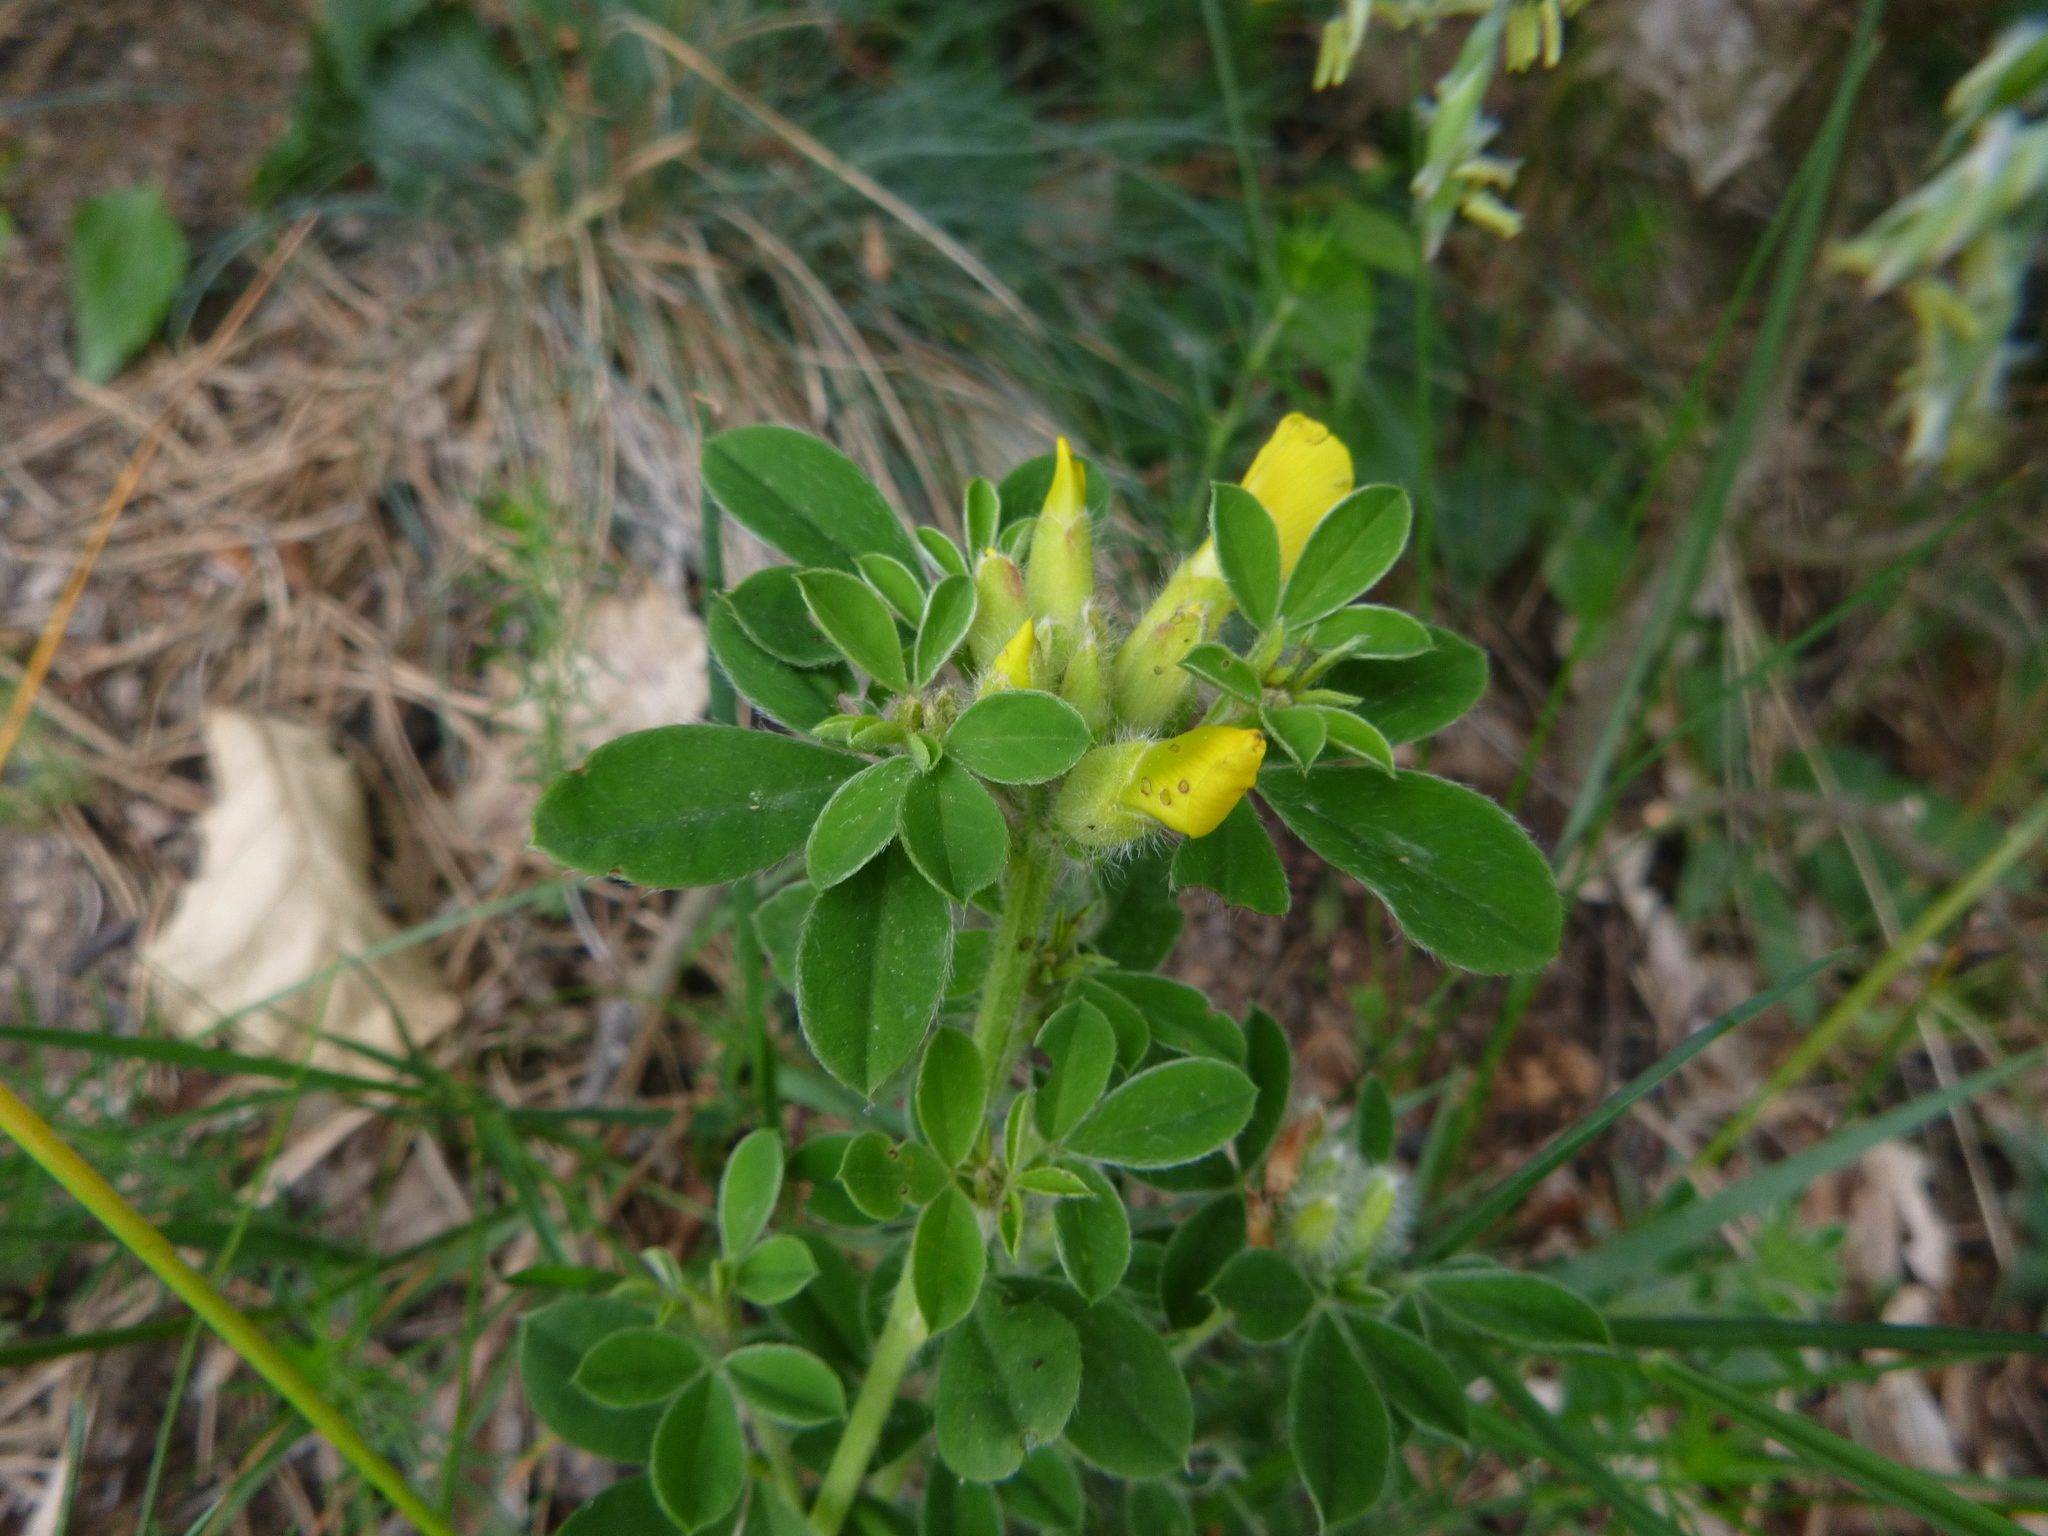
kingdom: Plantae
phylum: Tracheophyta
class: Magnoliopsida
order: Fabales
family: Fabaceae
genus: Chamaecytisus
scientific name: Chamaecytisus supinus
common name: Clustered broom
